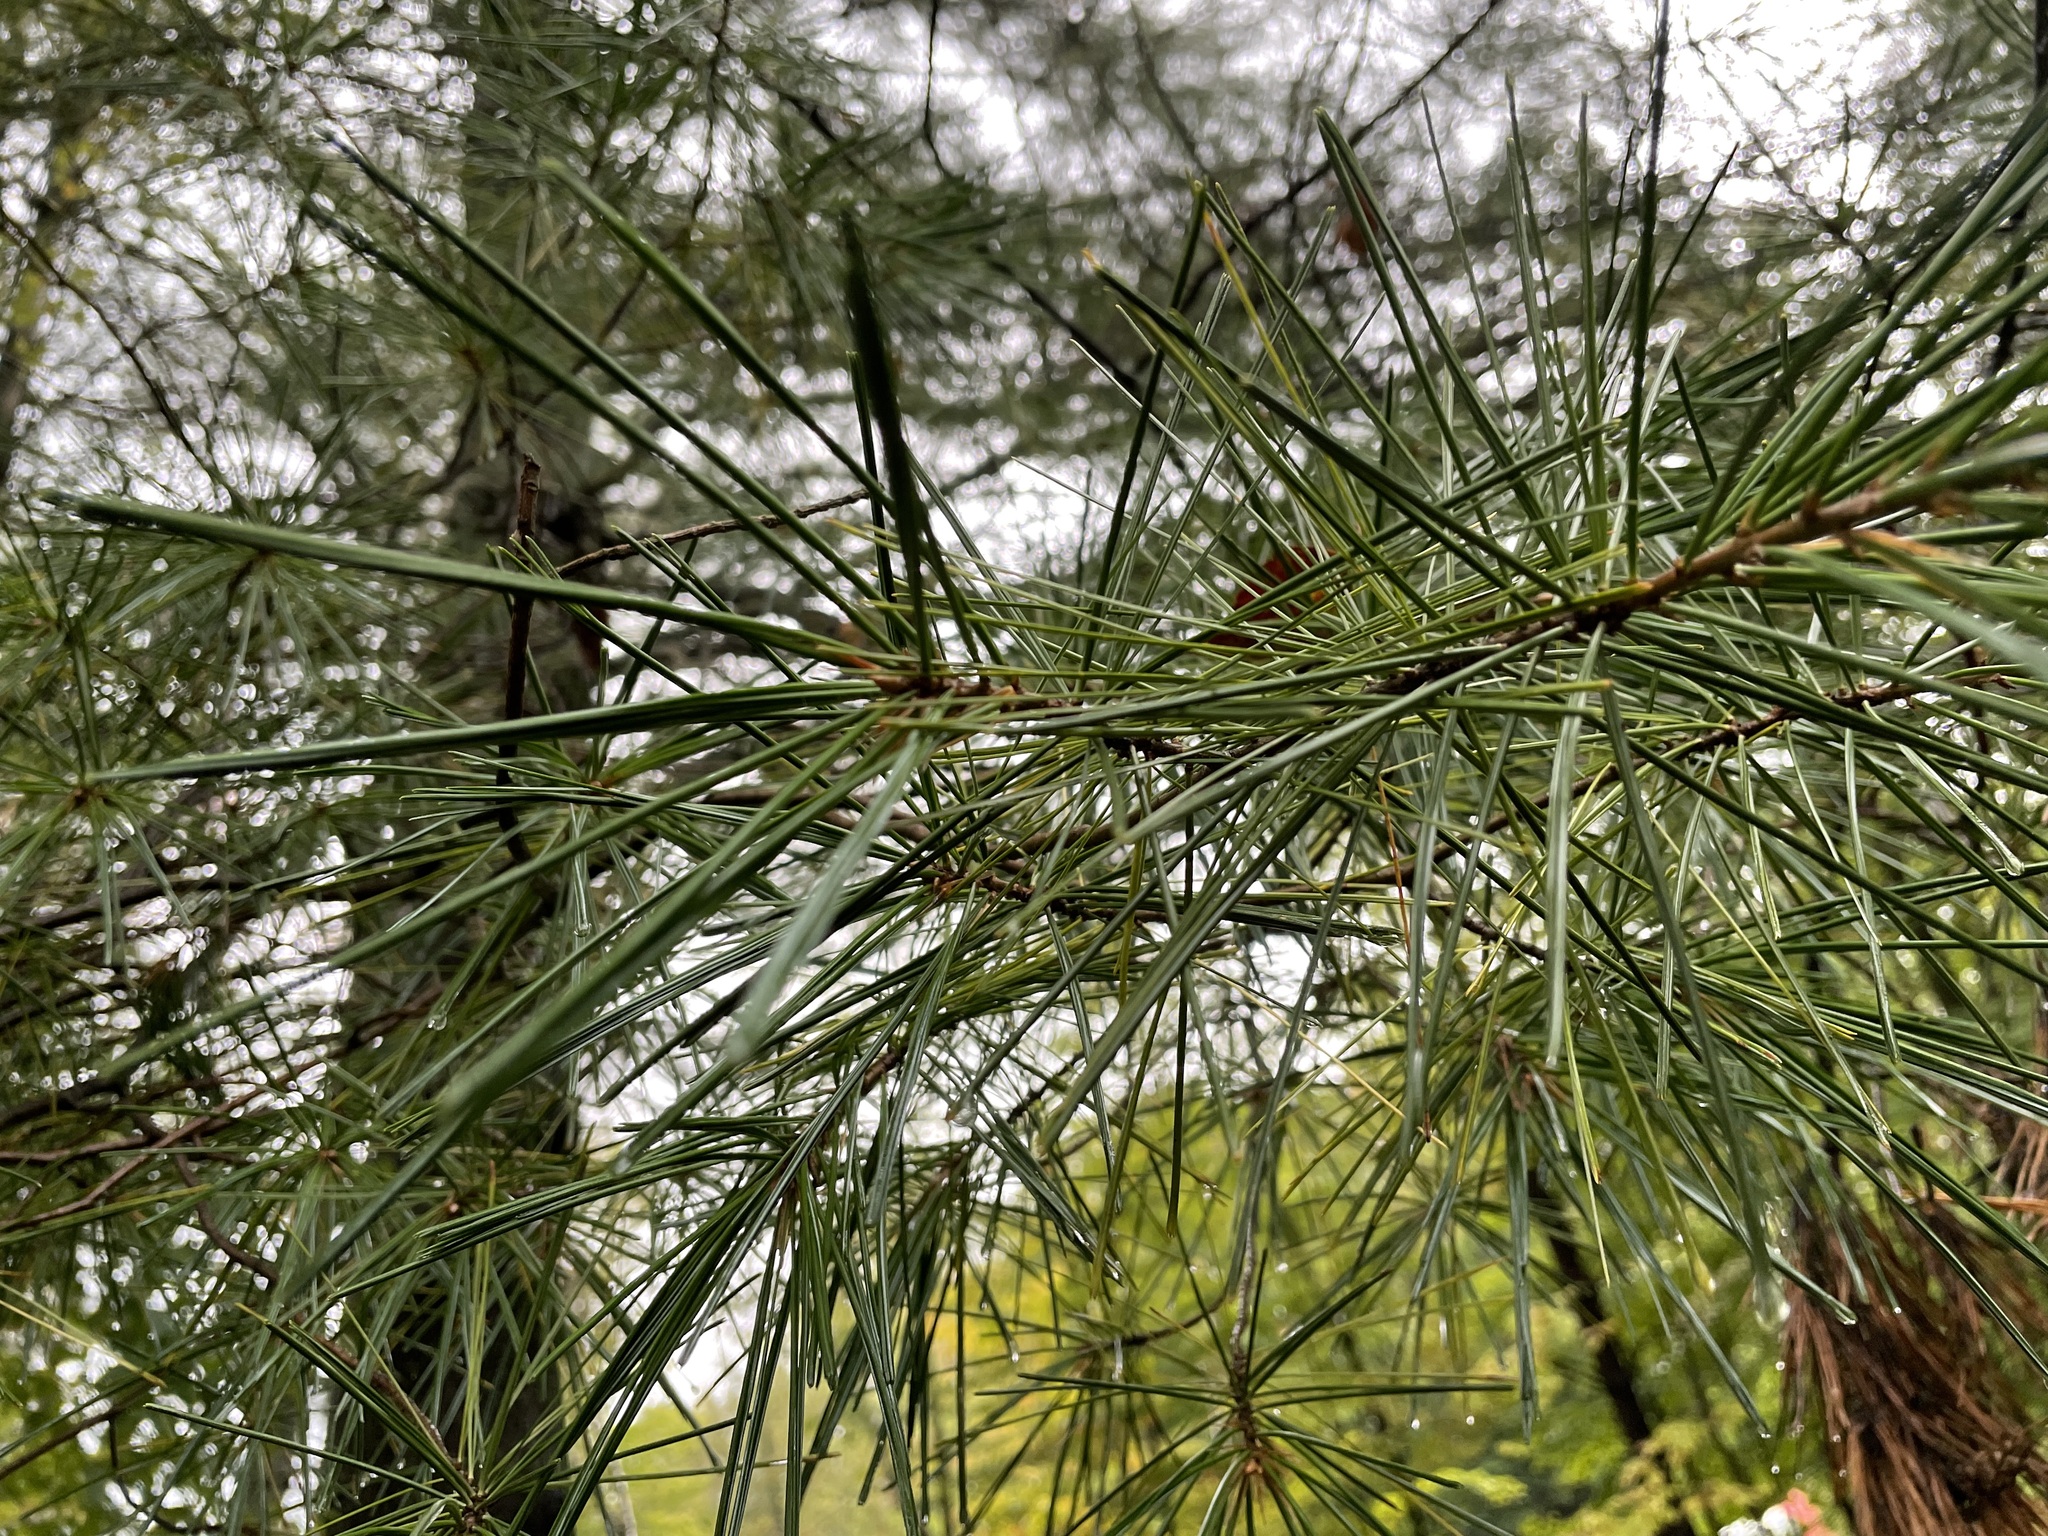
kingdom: Plantae
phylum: Tracheophyta
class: Pinopsida
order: Pinales
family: Pinaceae
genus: Pinus
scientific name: Pinus strobus
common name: Weymouth pine
